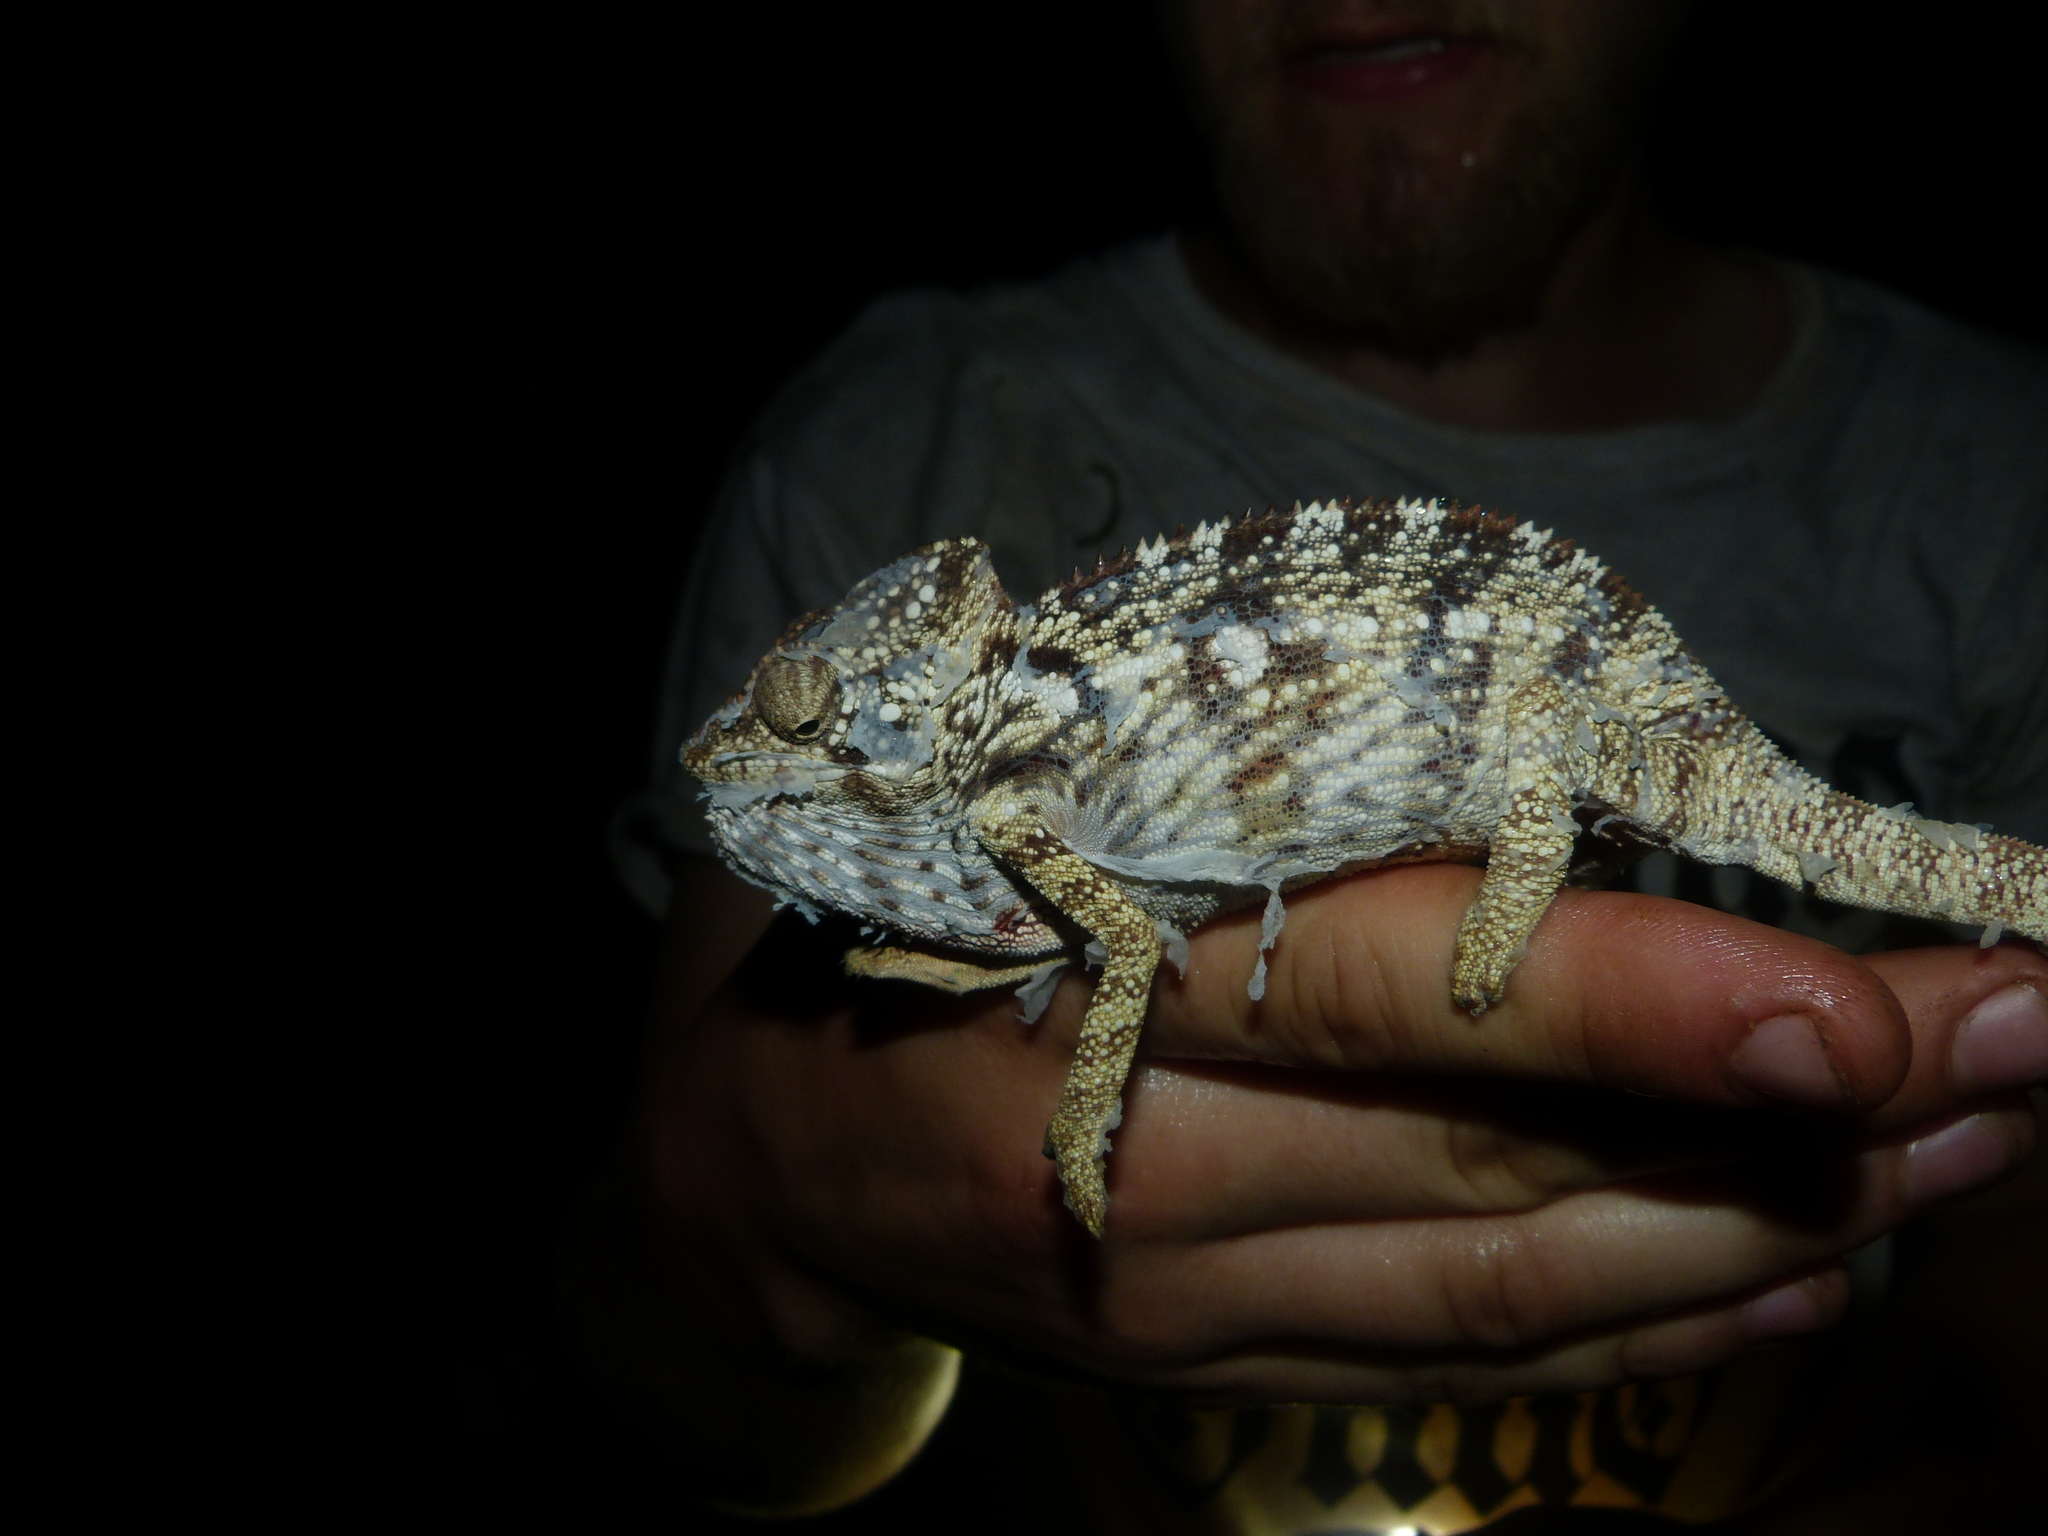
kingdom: Animalia
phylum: Chordata
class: Squamata
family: Chamaeleonidae
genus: Furcifer
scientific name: Furcifer oustaleti
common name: Oustalet's chameleon
